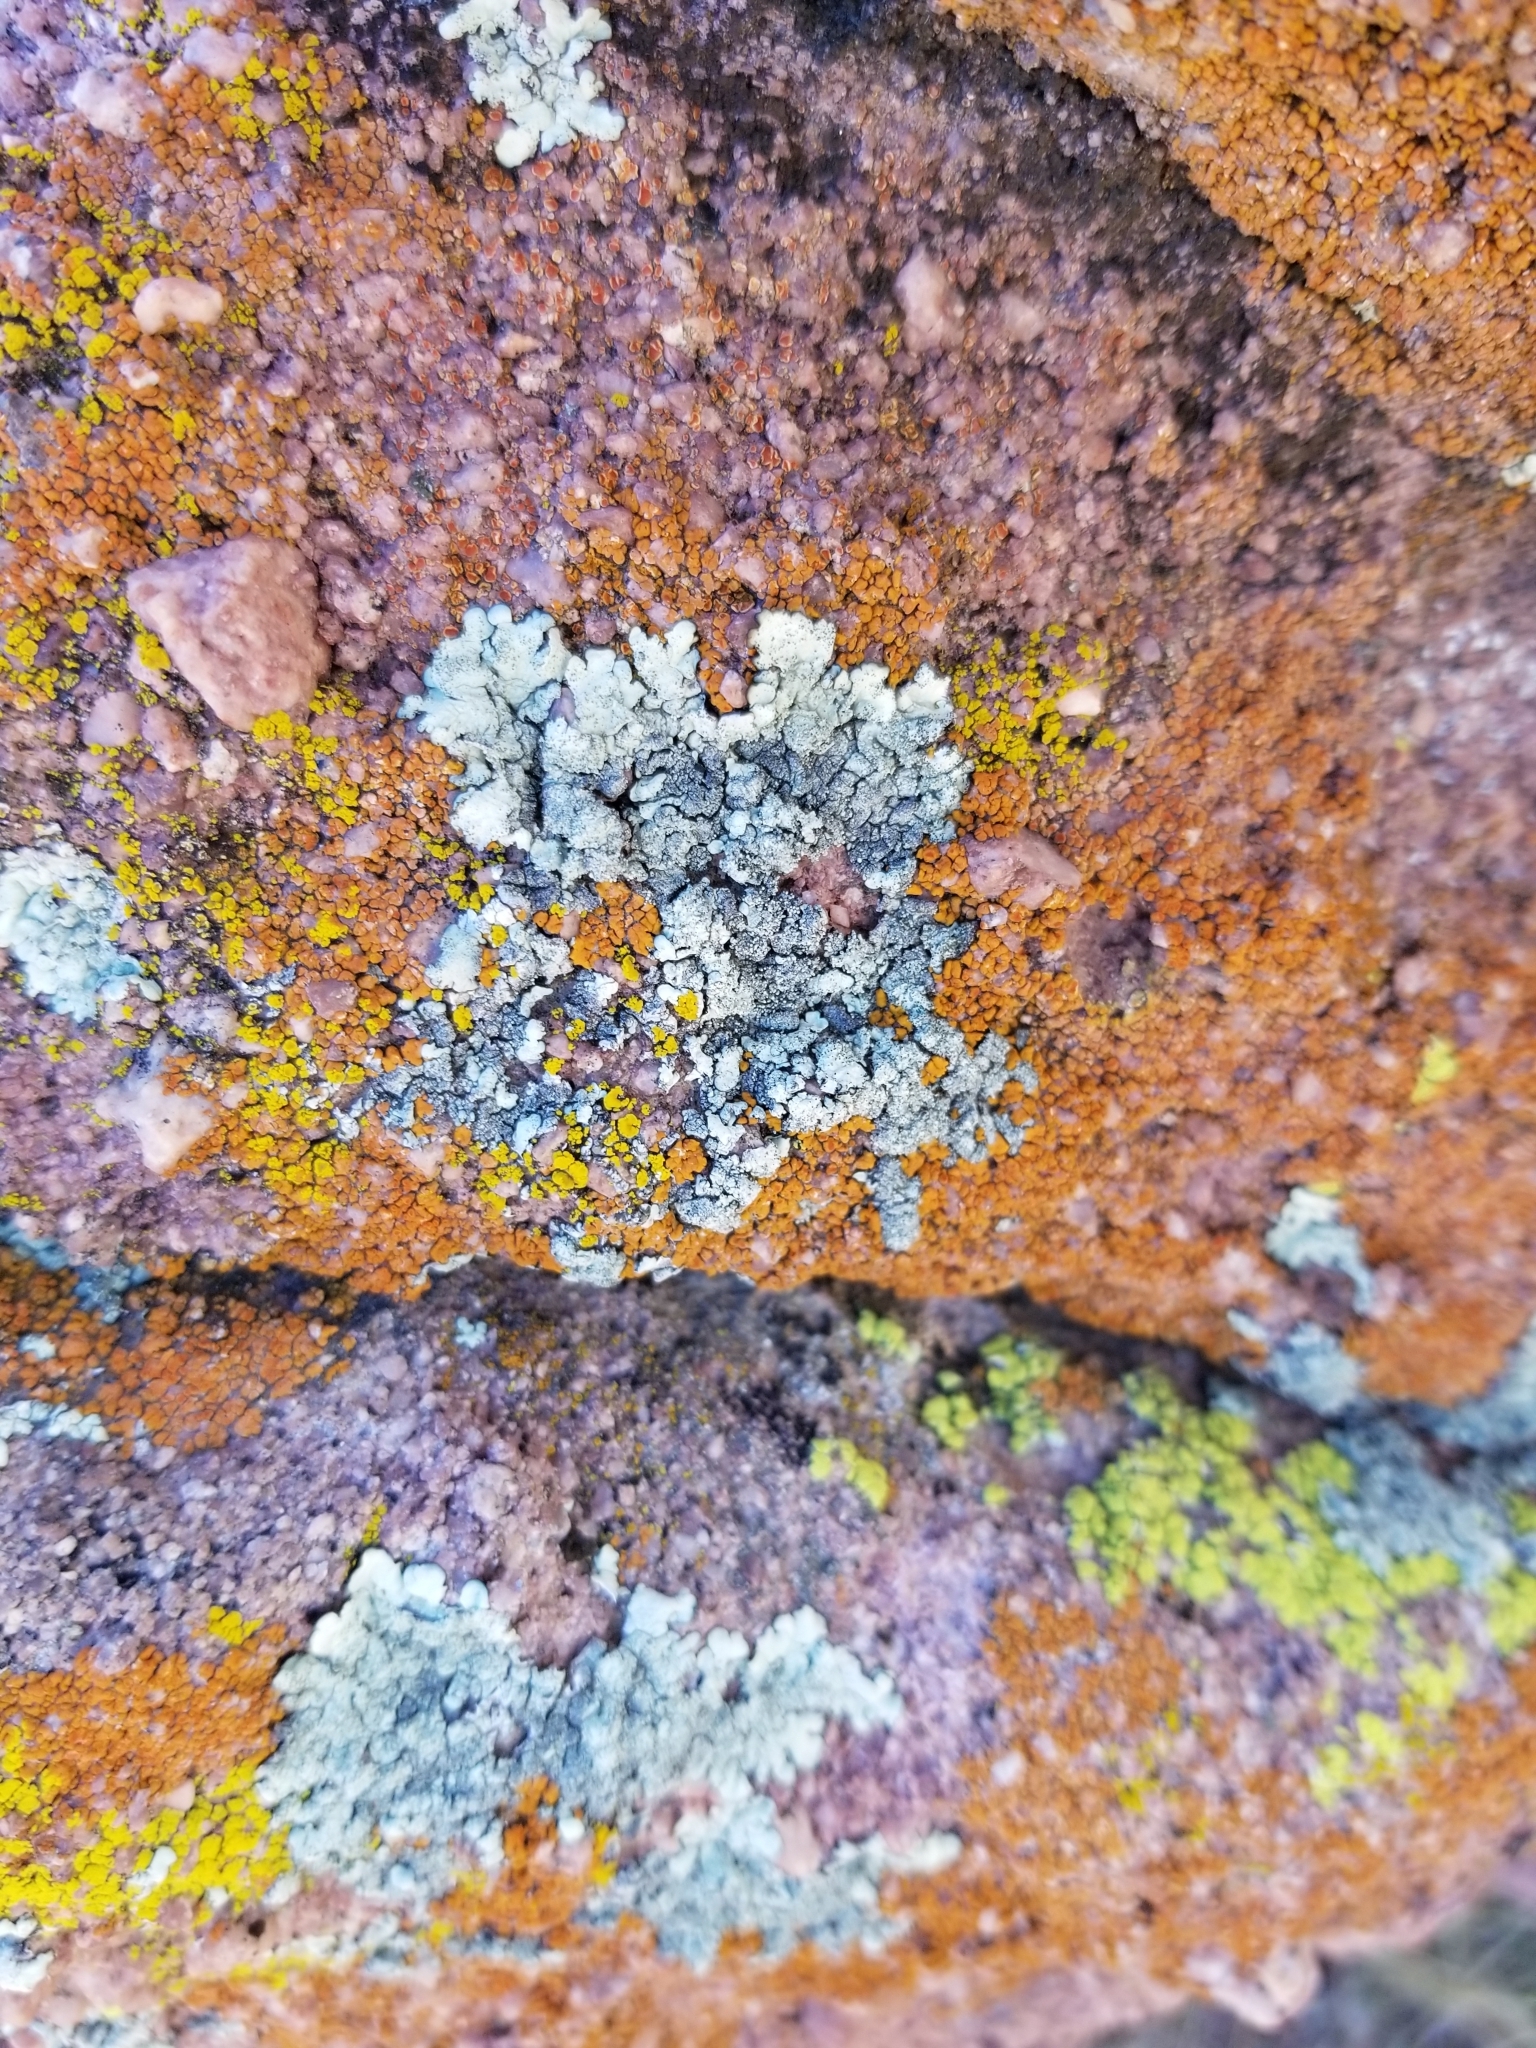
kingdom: Fungi
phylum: Ascomycota
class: Lecanoromycetes
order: Lecanorales
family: Parmeliaceae
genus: Xanthoparmelia
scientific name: Xanthoparmelia maricopensis
